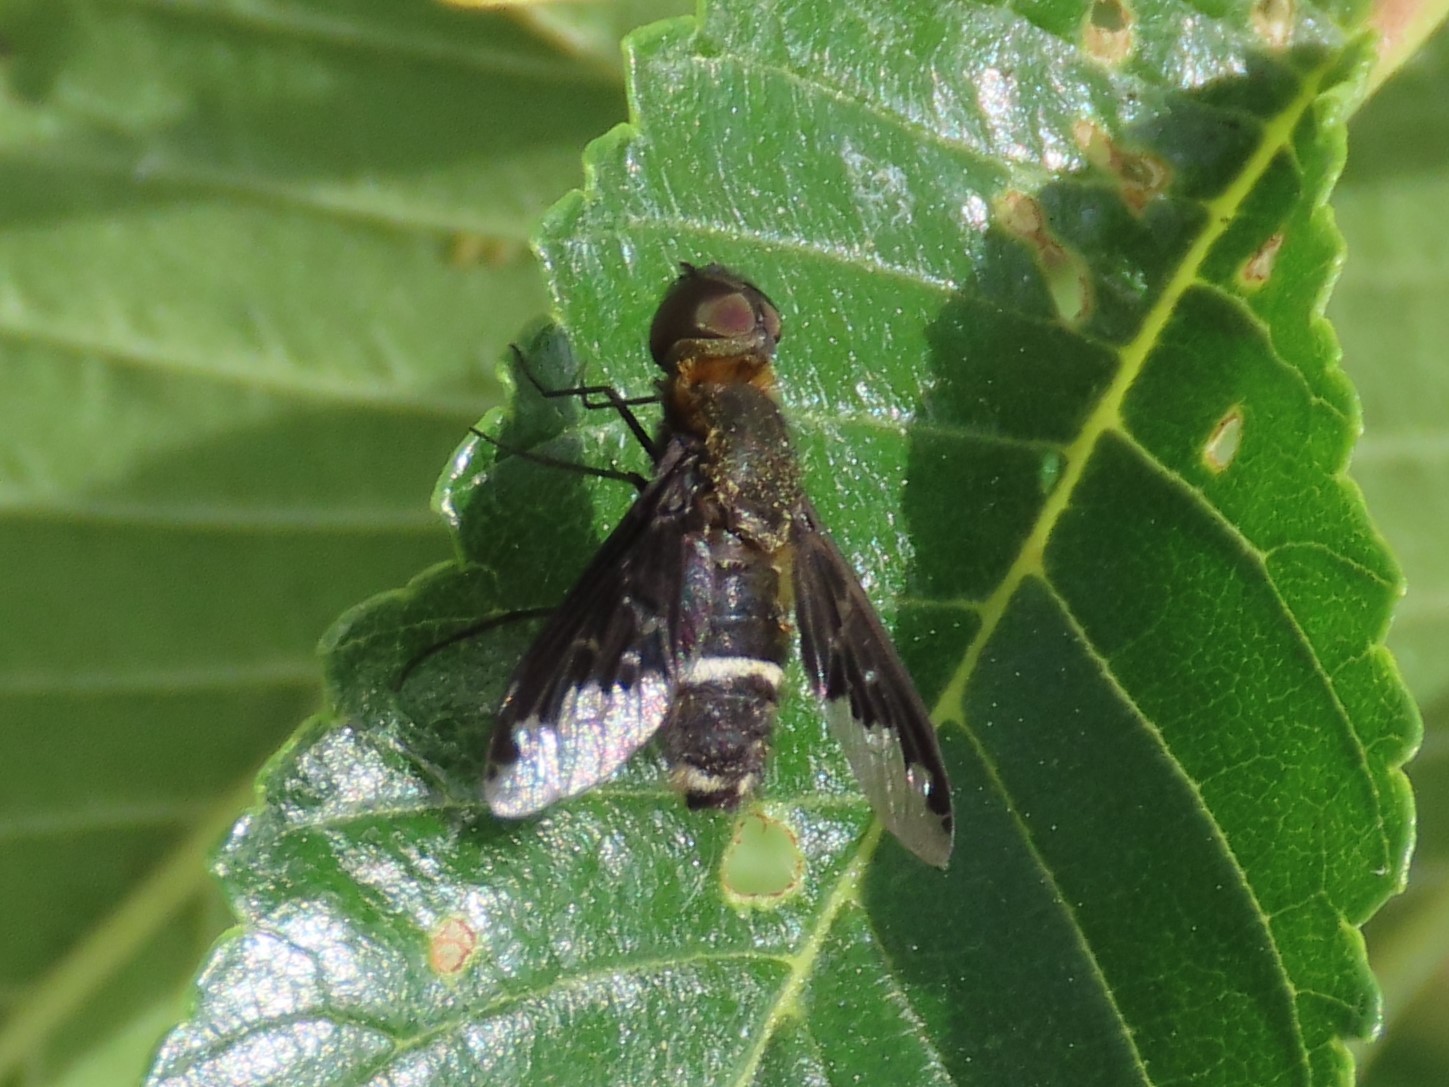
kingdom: Animalia
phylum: Arthropoda
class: Insecta
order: Diptera
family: Bombyliidae
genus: Hemipenthes
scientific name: Hemipenthes velutina
